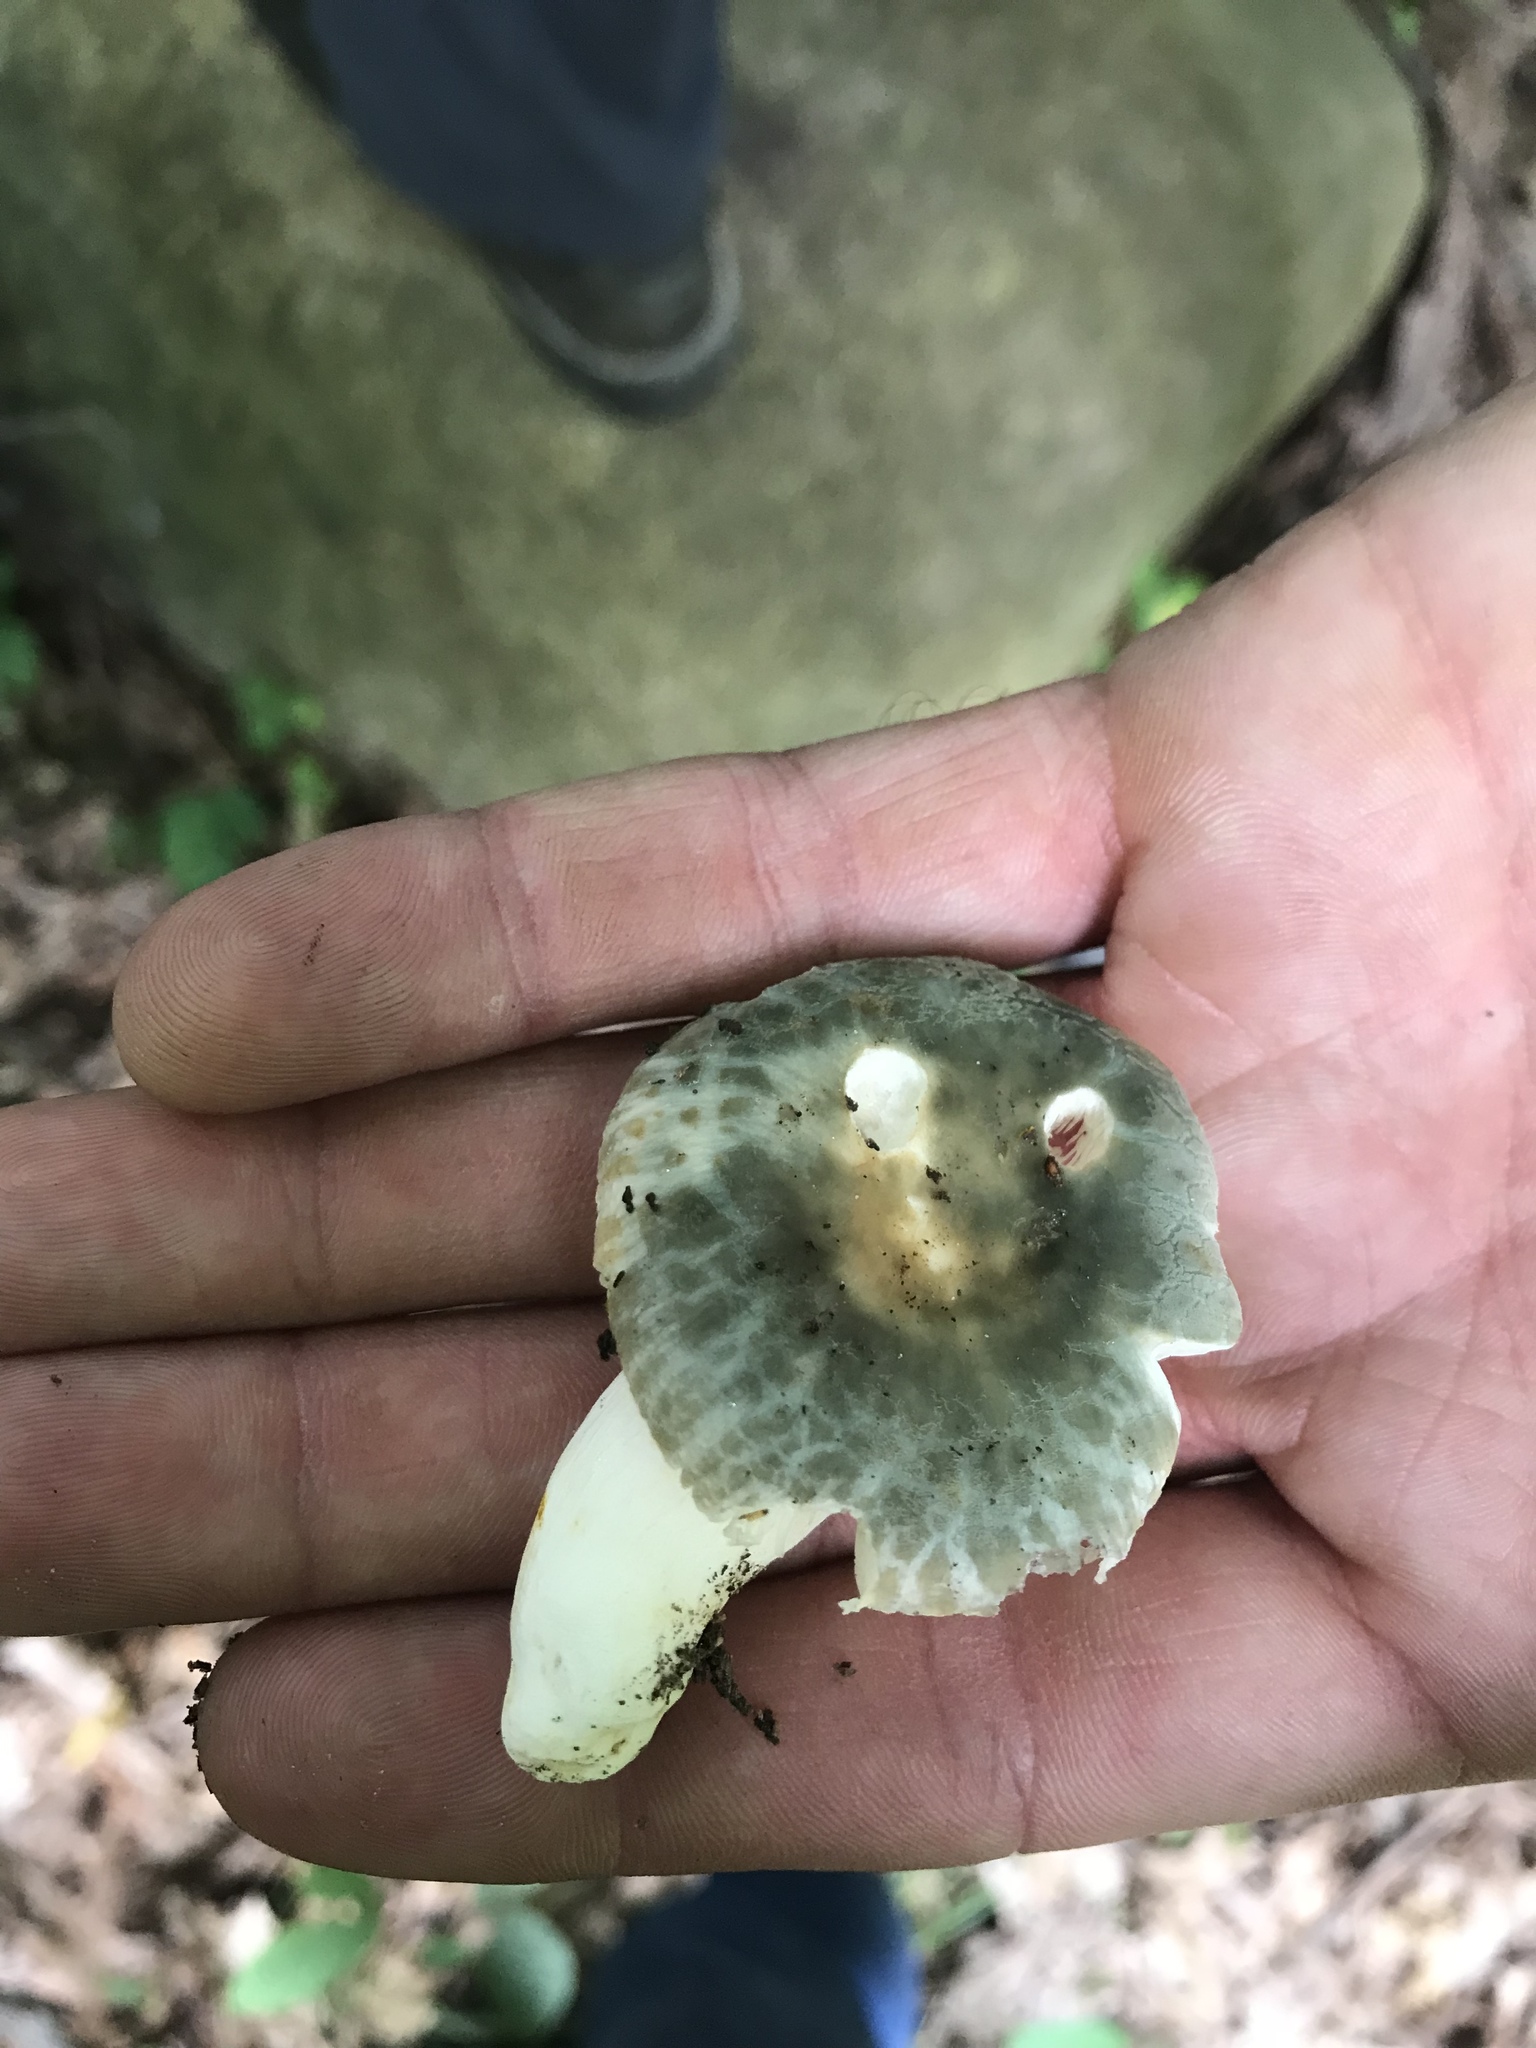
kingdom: Fungi
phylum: Basidiomycota
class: Agaricomycetes
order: Russulales
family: Russulaceae
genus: Russula
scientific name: Russula parvovirescens
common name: Blue-green cracking russula
